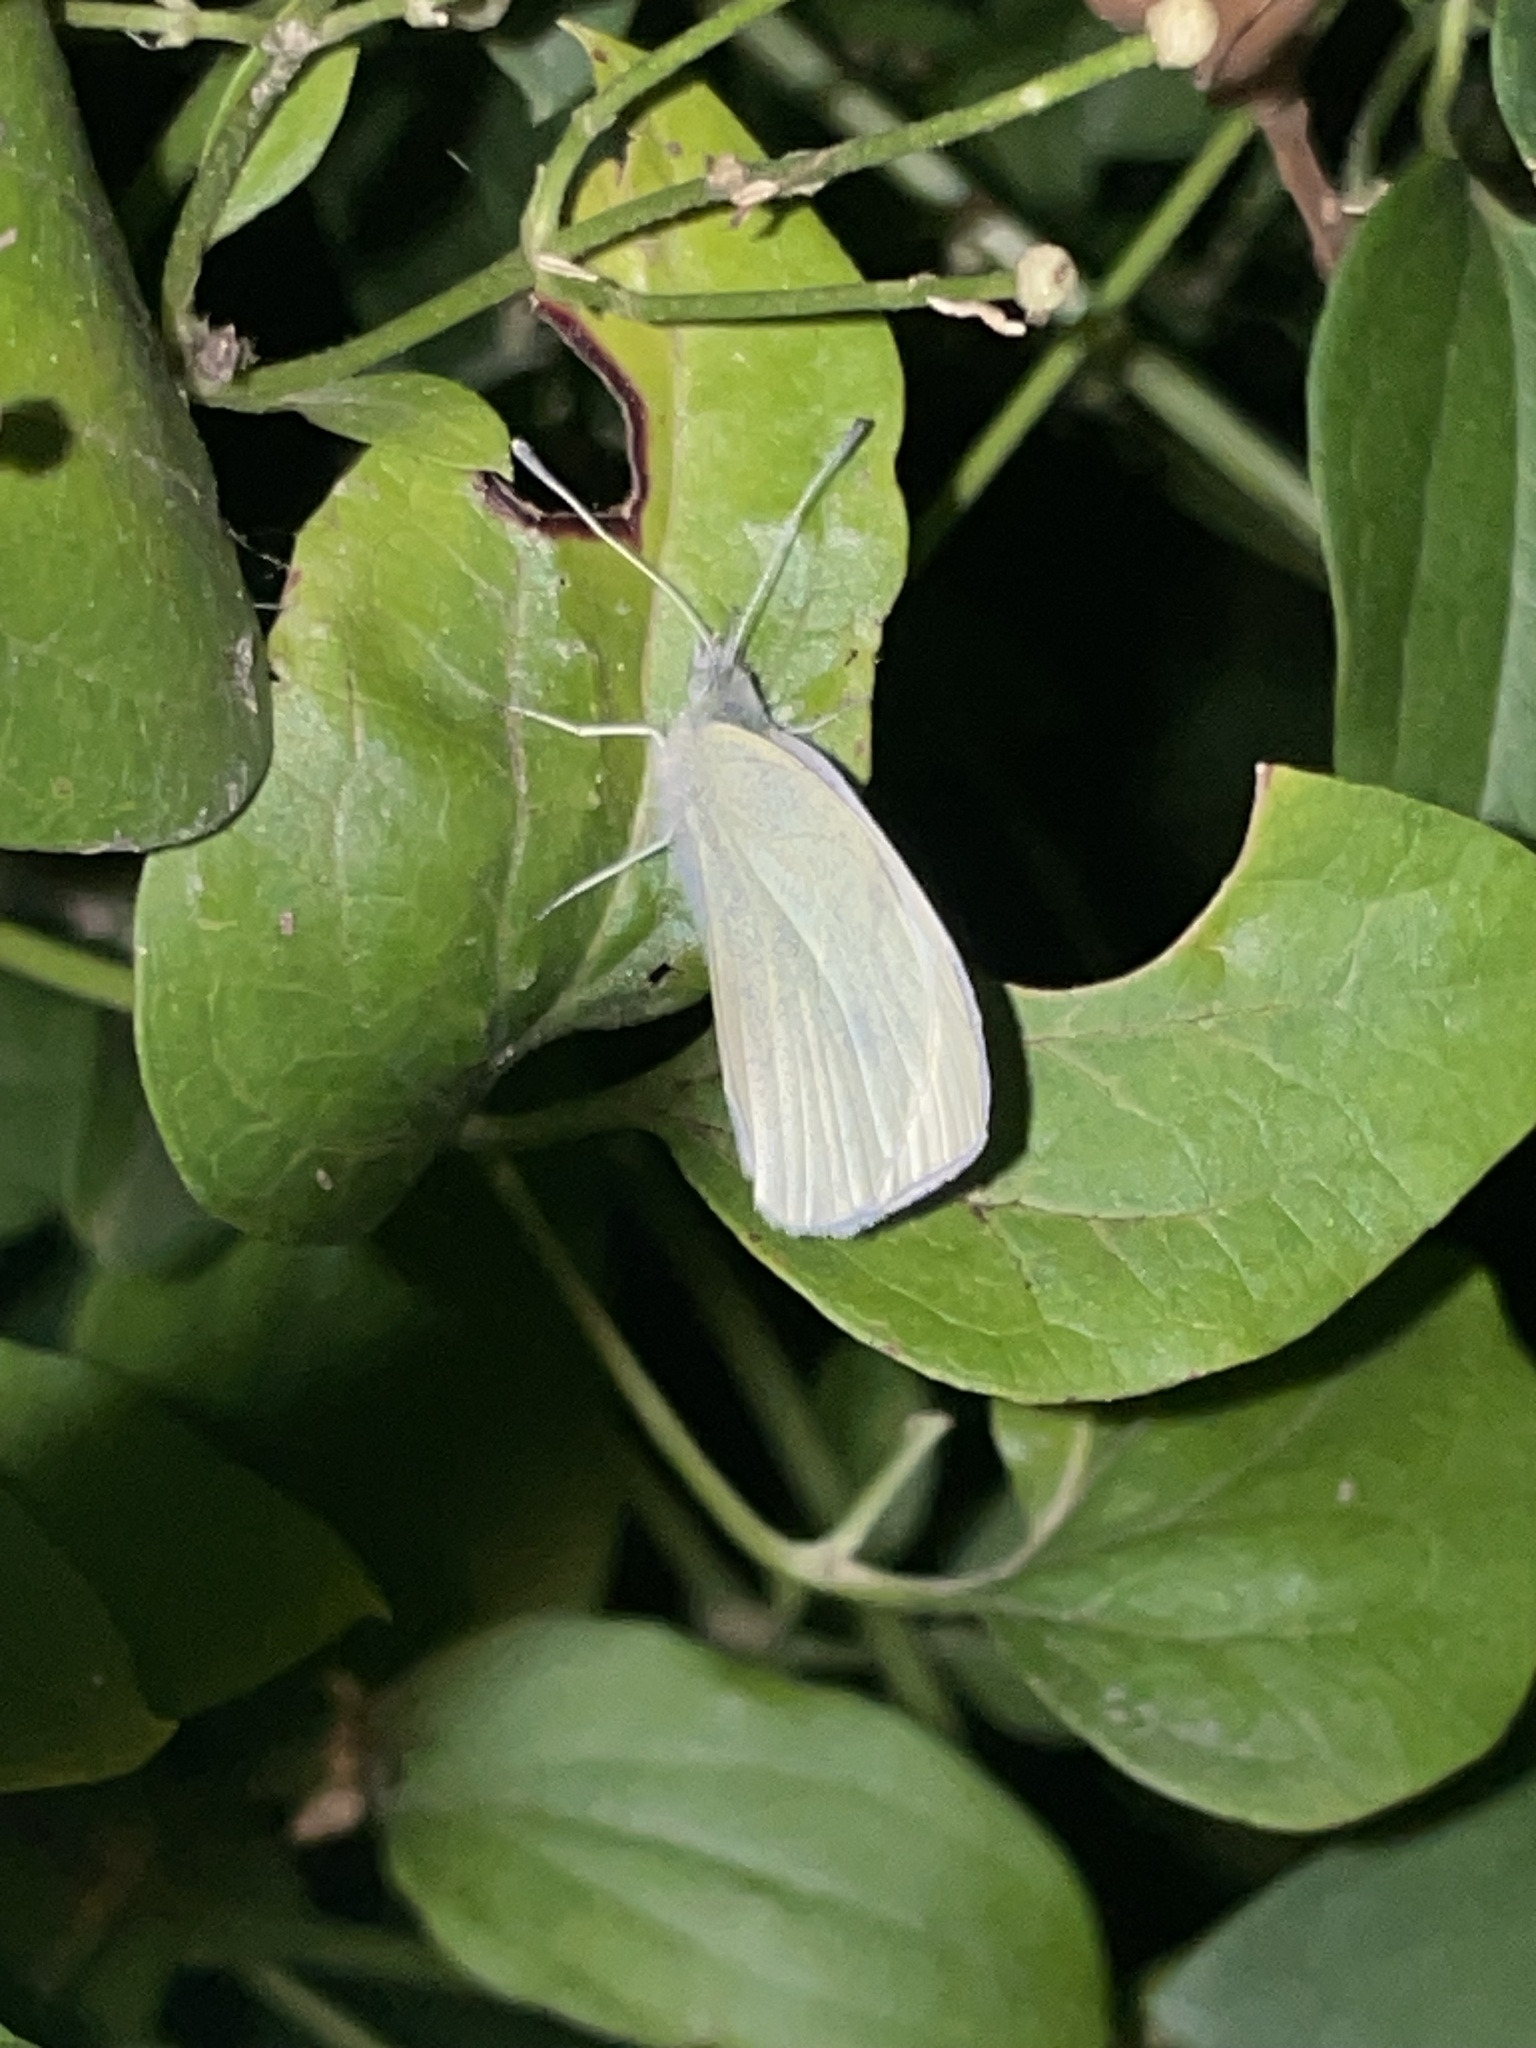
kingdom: Animalia
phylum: Arthropoda
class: Insecta
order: Lepidoptera
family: Pieridae
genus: Pieris
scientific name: Pieris rapae
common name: Small white
